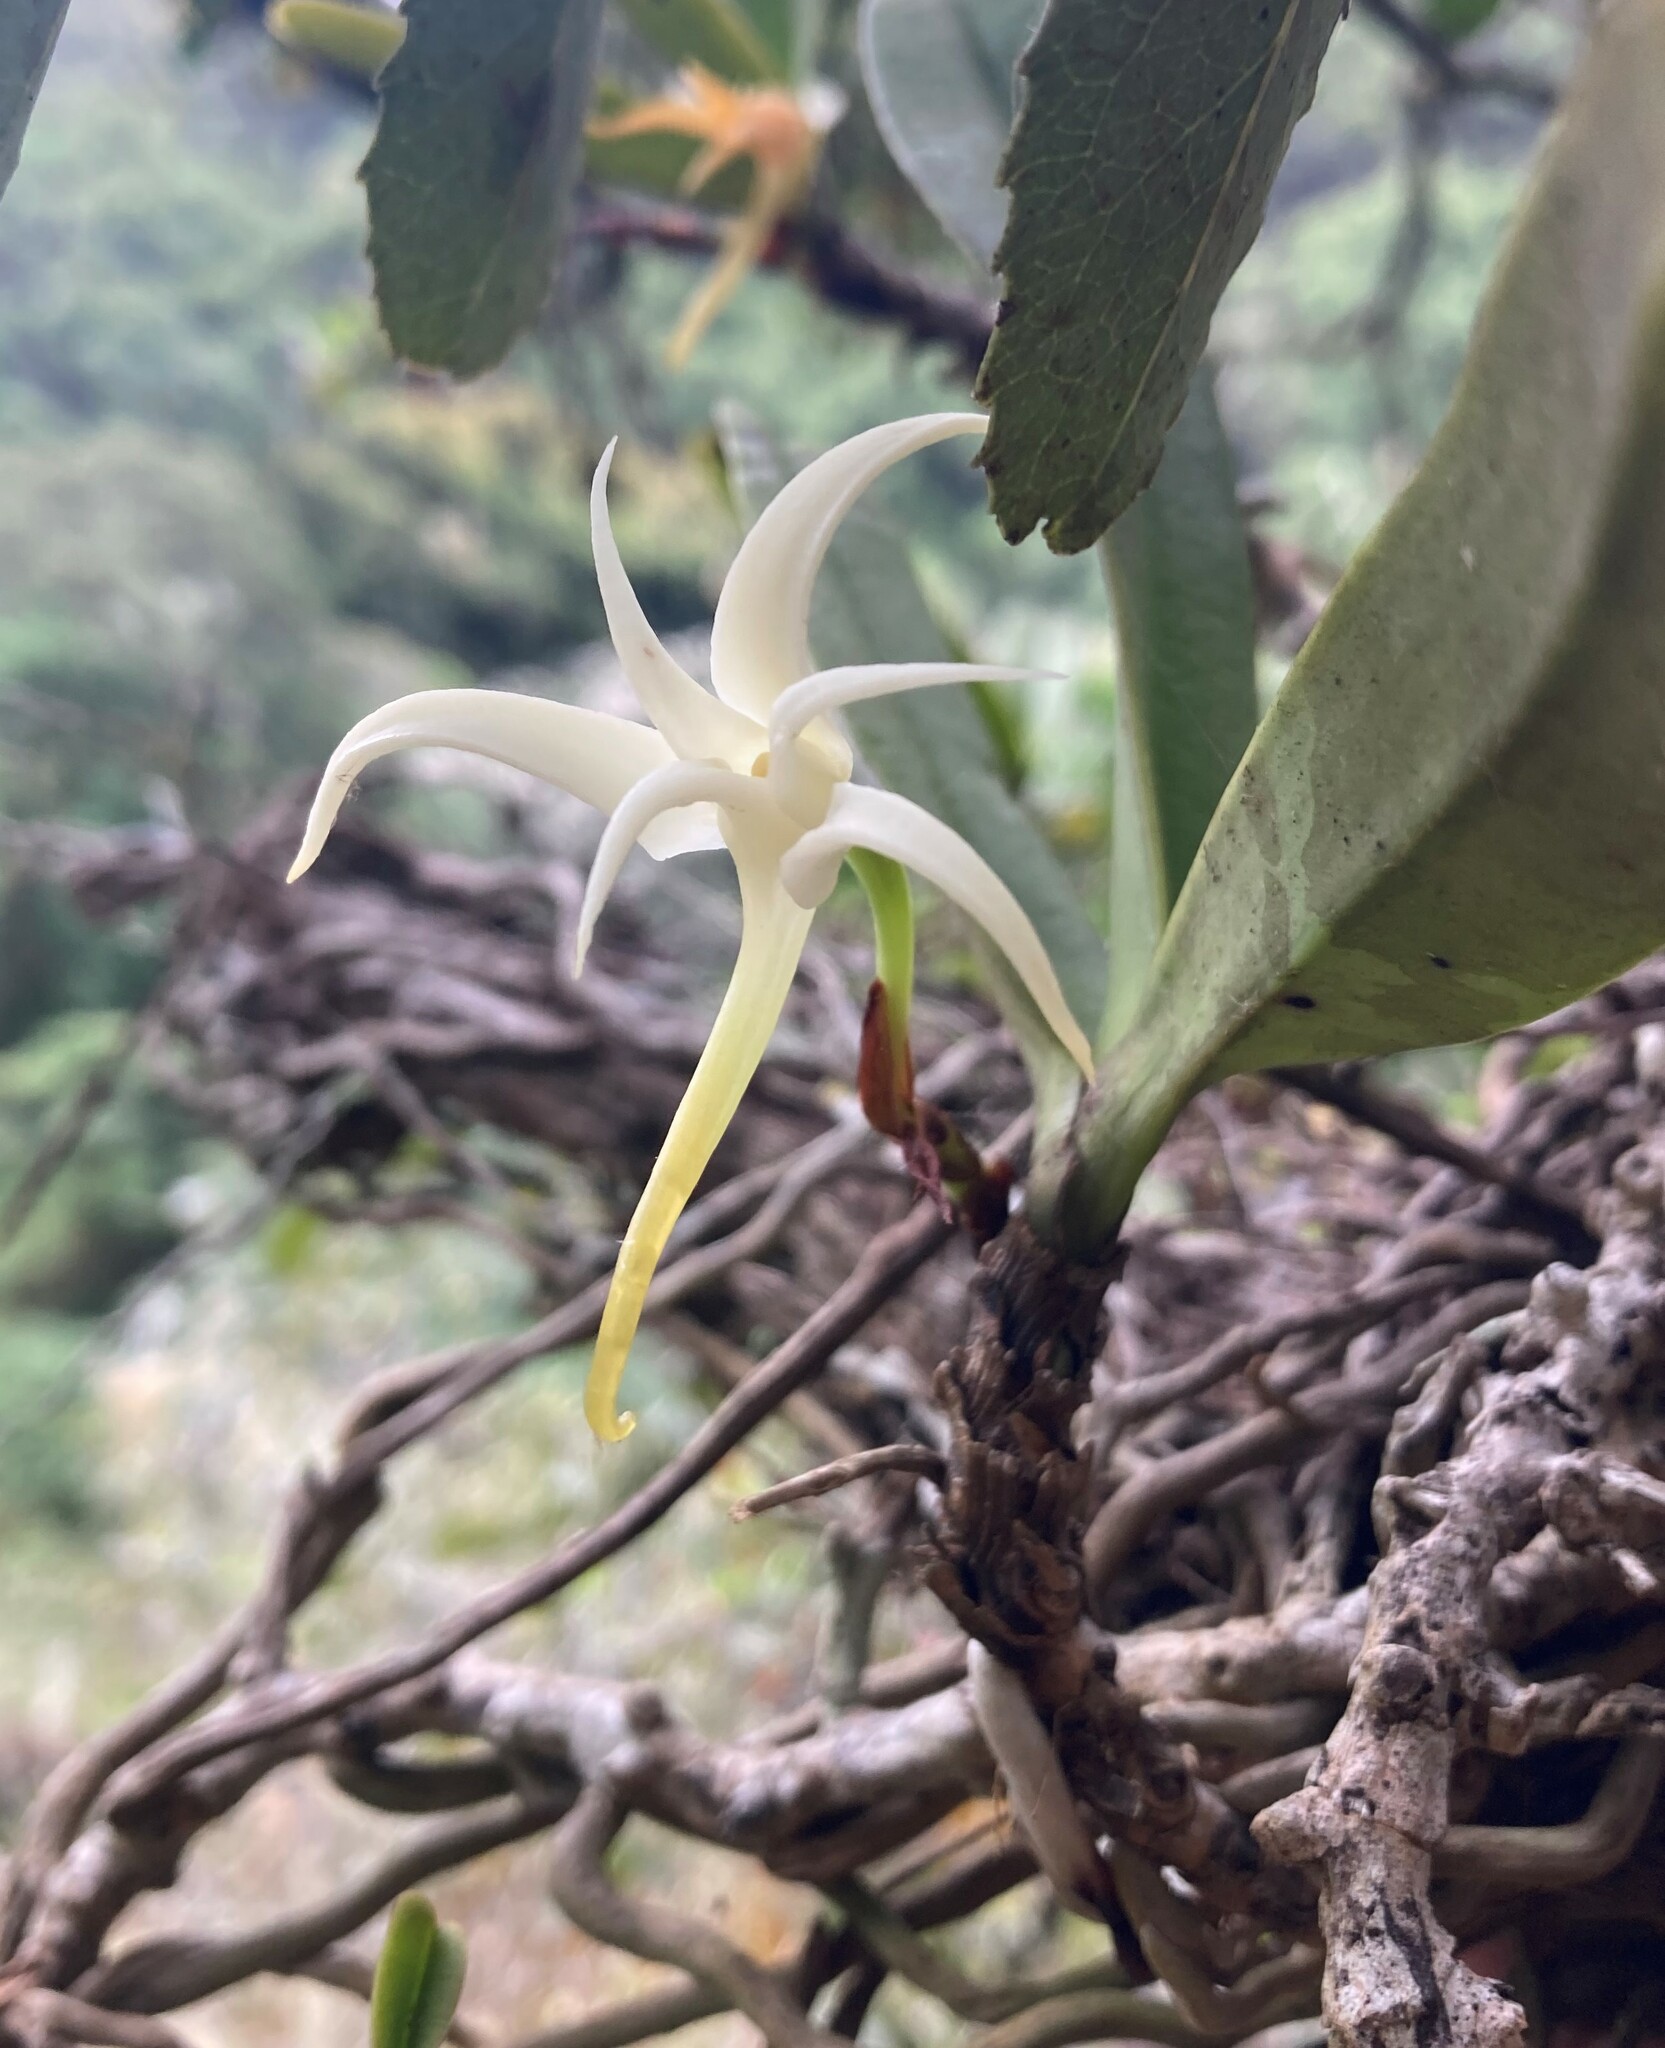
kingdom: Plantae
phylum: Tracheophyta
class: Liliopsida
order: Asparagales
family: Orchidaceae
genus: Cyrtorchis
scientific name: Cyrtorchis arcuata
